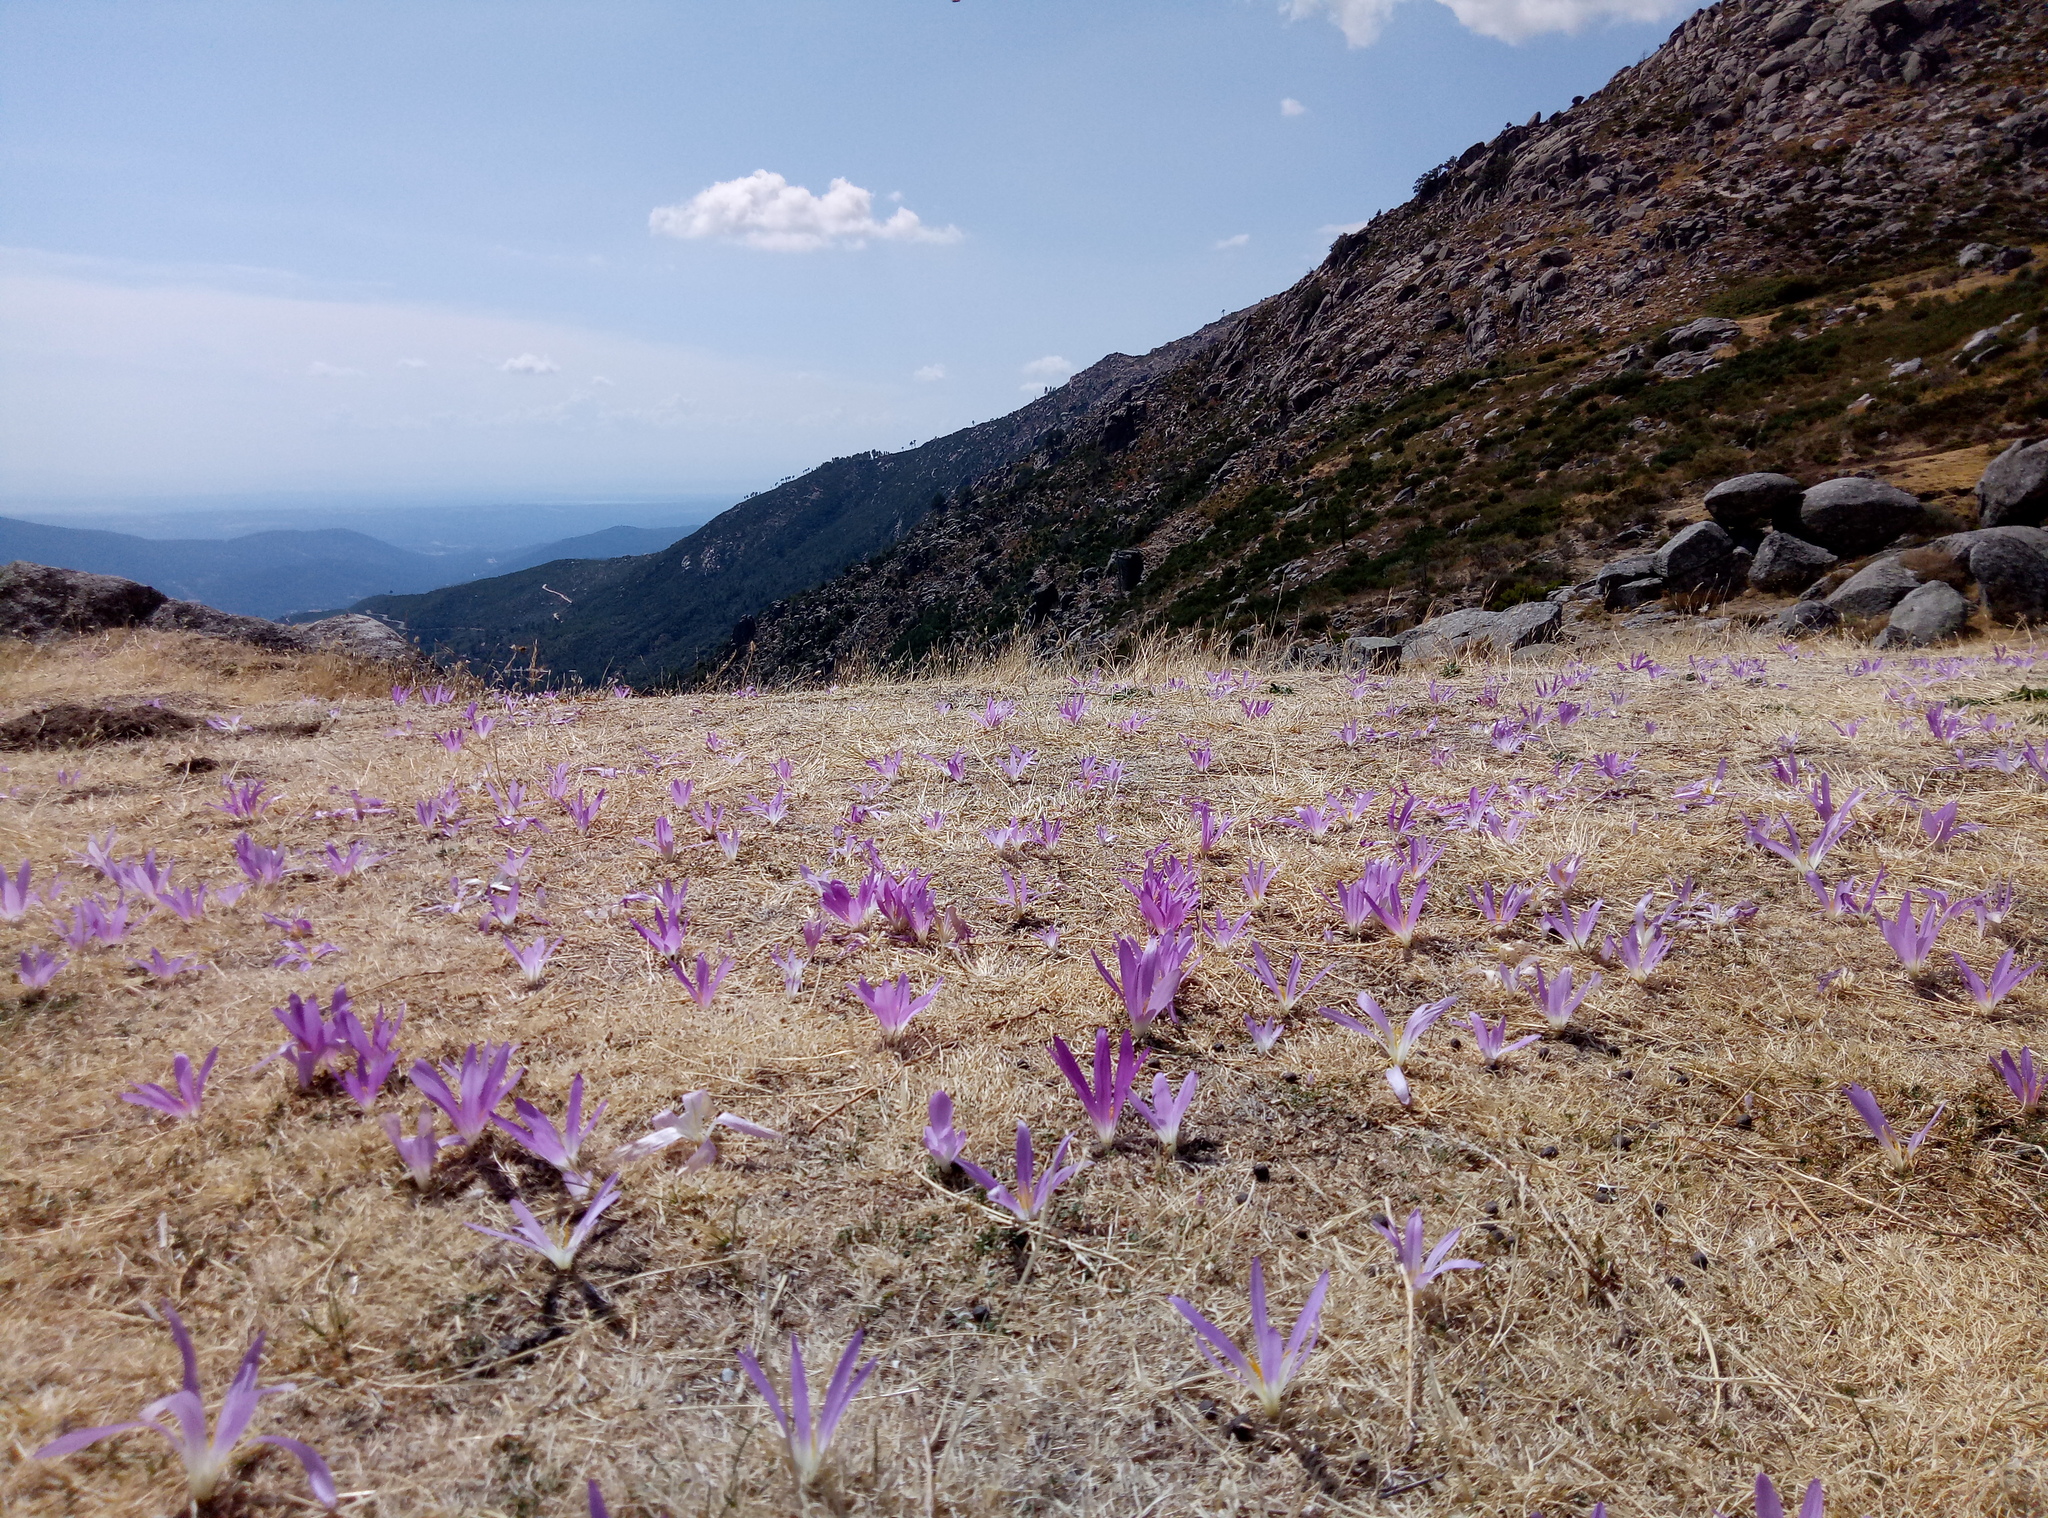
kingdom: Plantae
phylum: Tracheophyta
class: Liliopsida
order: Liliales
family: Colchicaceae
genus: Colchicum
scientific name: Colchicum montanum
